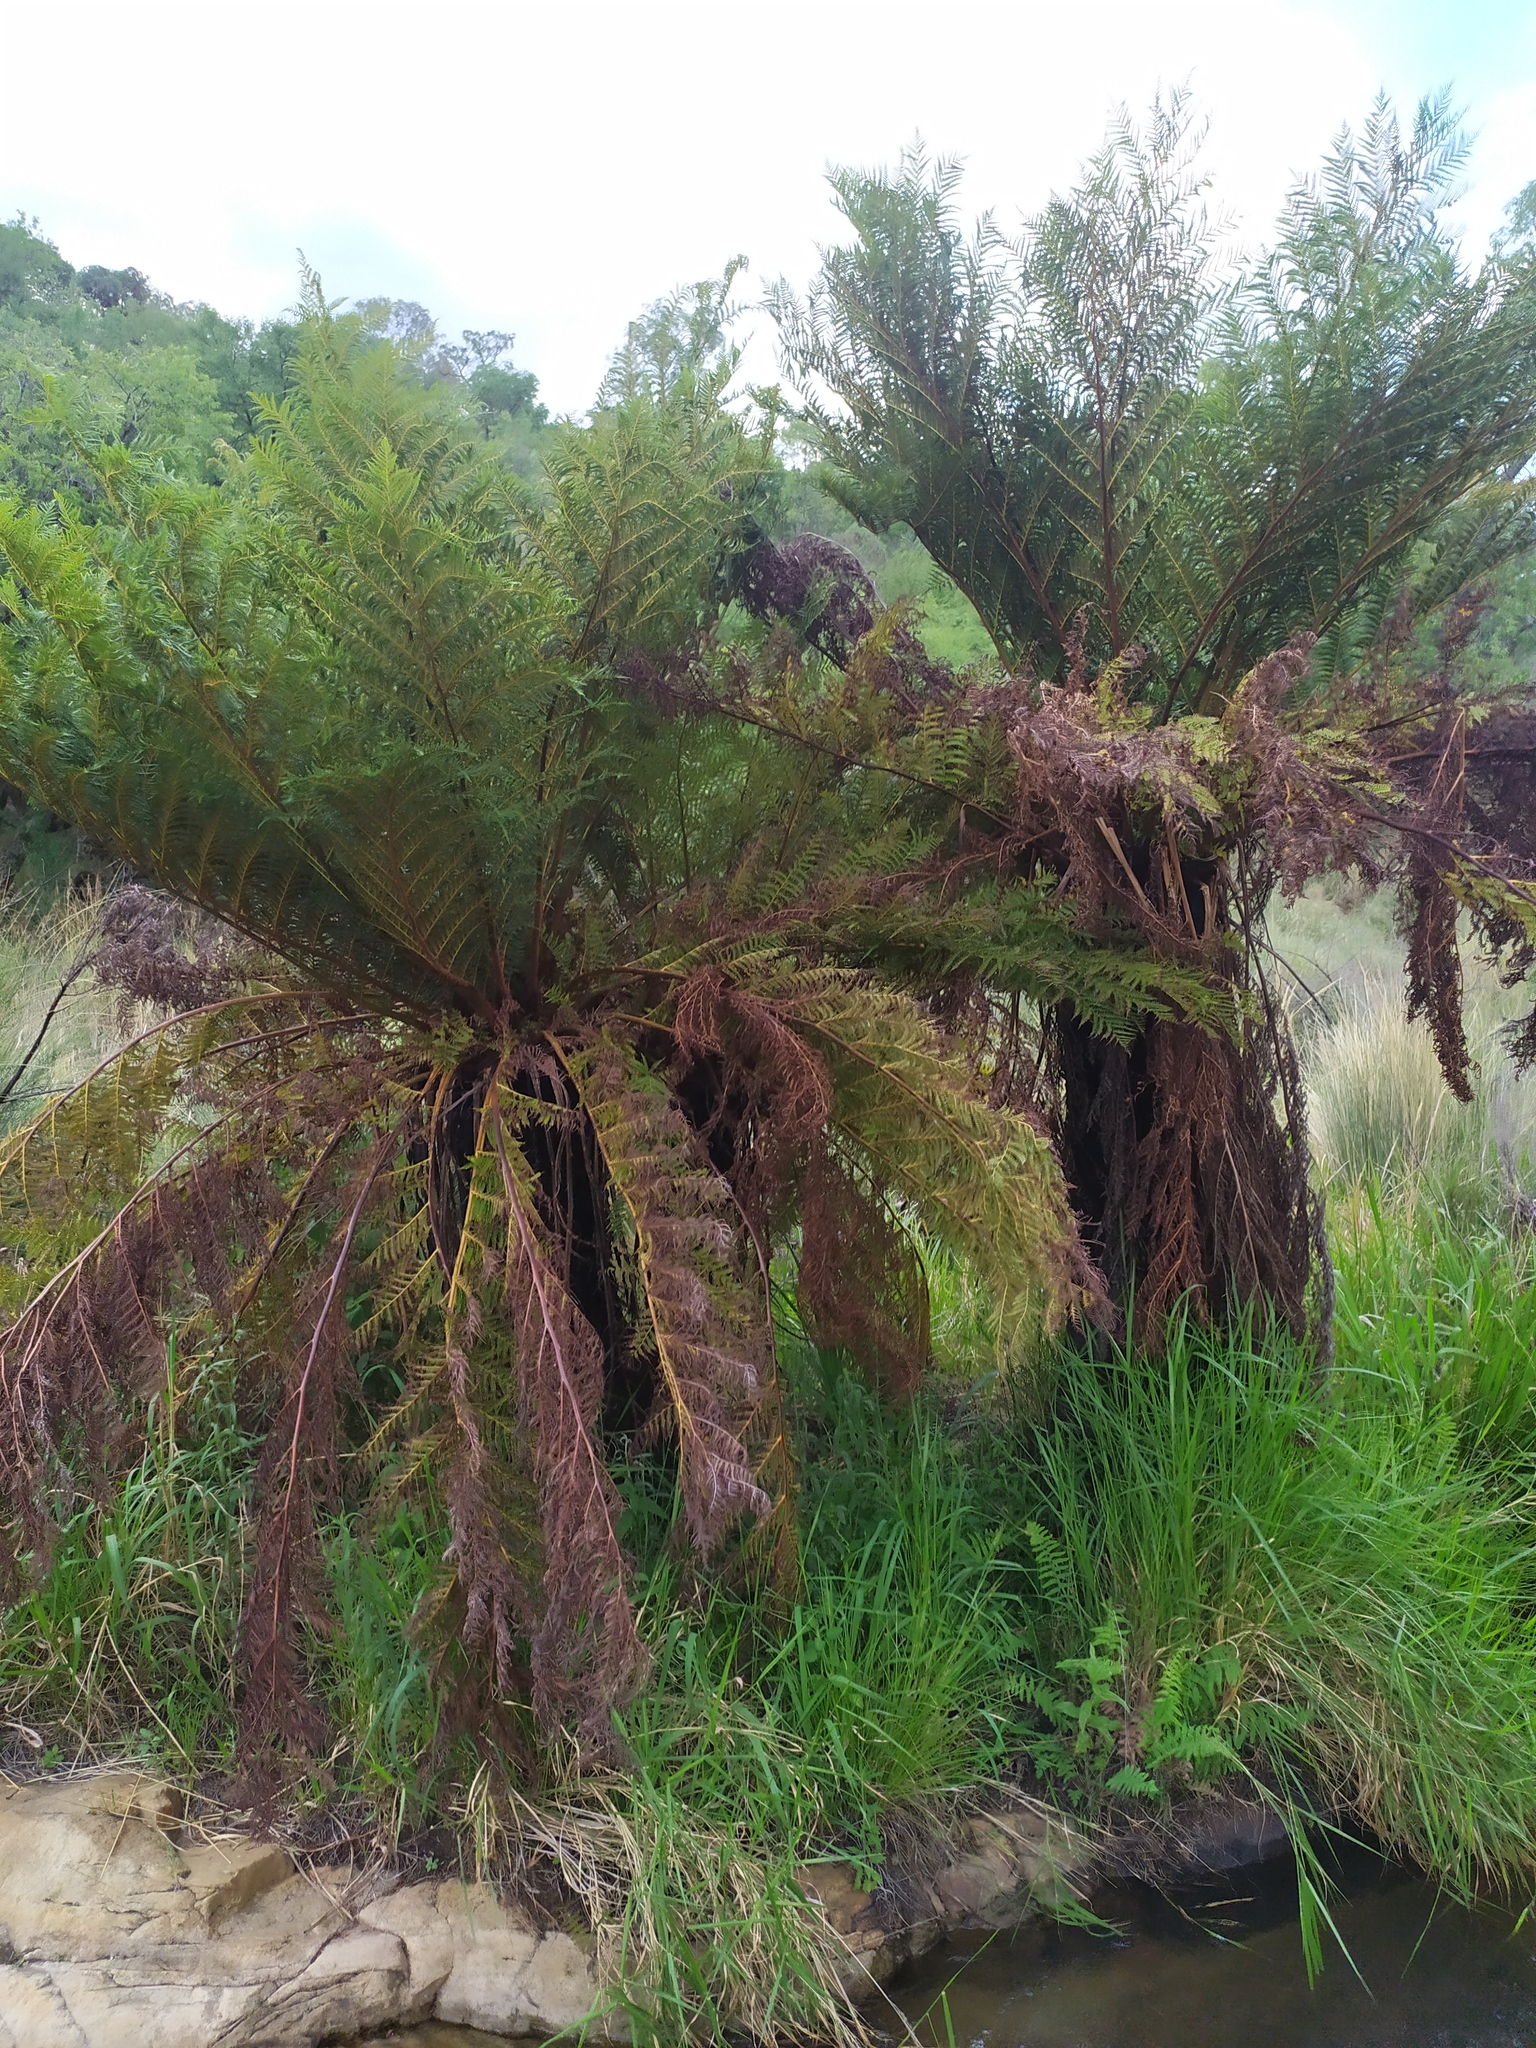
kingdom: Plantae
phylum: Tracheophyta
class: Polypodiopsida
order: Cyatheales
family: Cyatheaceae
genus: Alsophila
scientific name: Alsophila dregei
